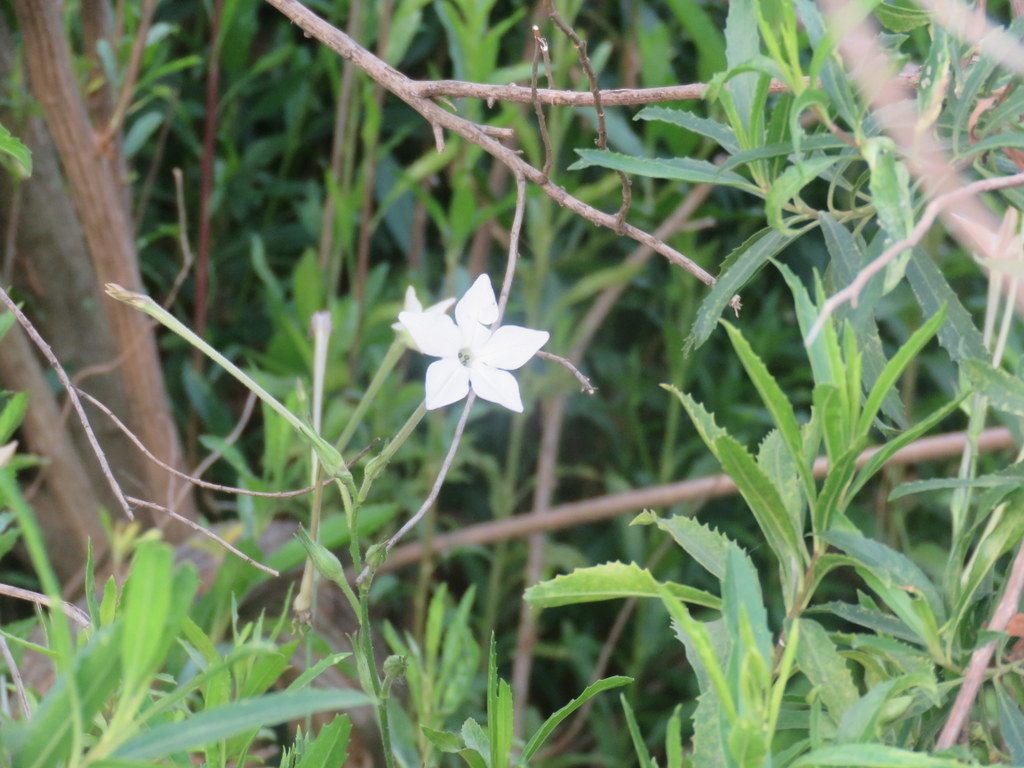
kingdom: Plantae
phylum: Tracheophyta
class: Magnoliopsida
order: Solanales
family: Solanaceae
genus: Nicotiana
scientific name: Nicotiana longiflora
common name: Long-flowered tobacco
